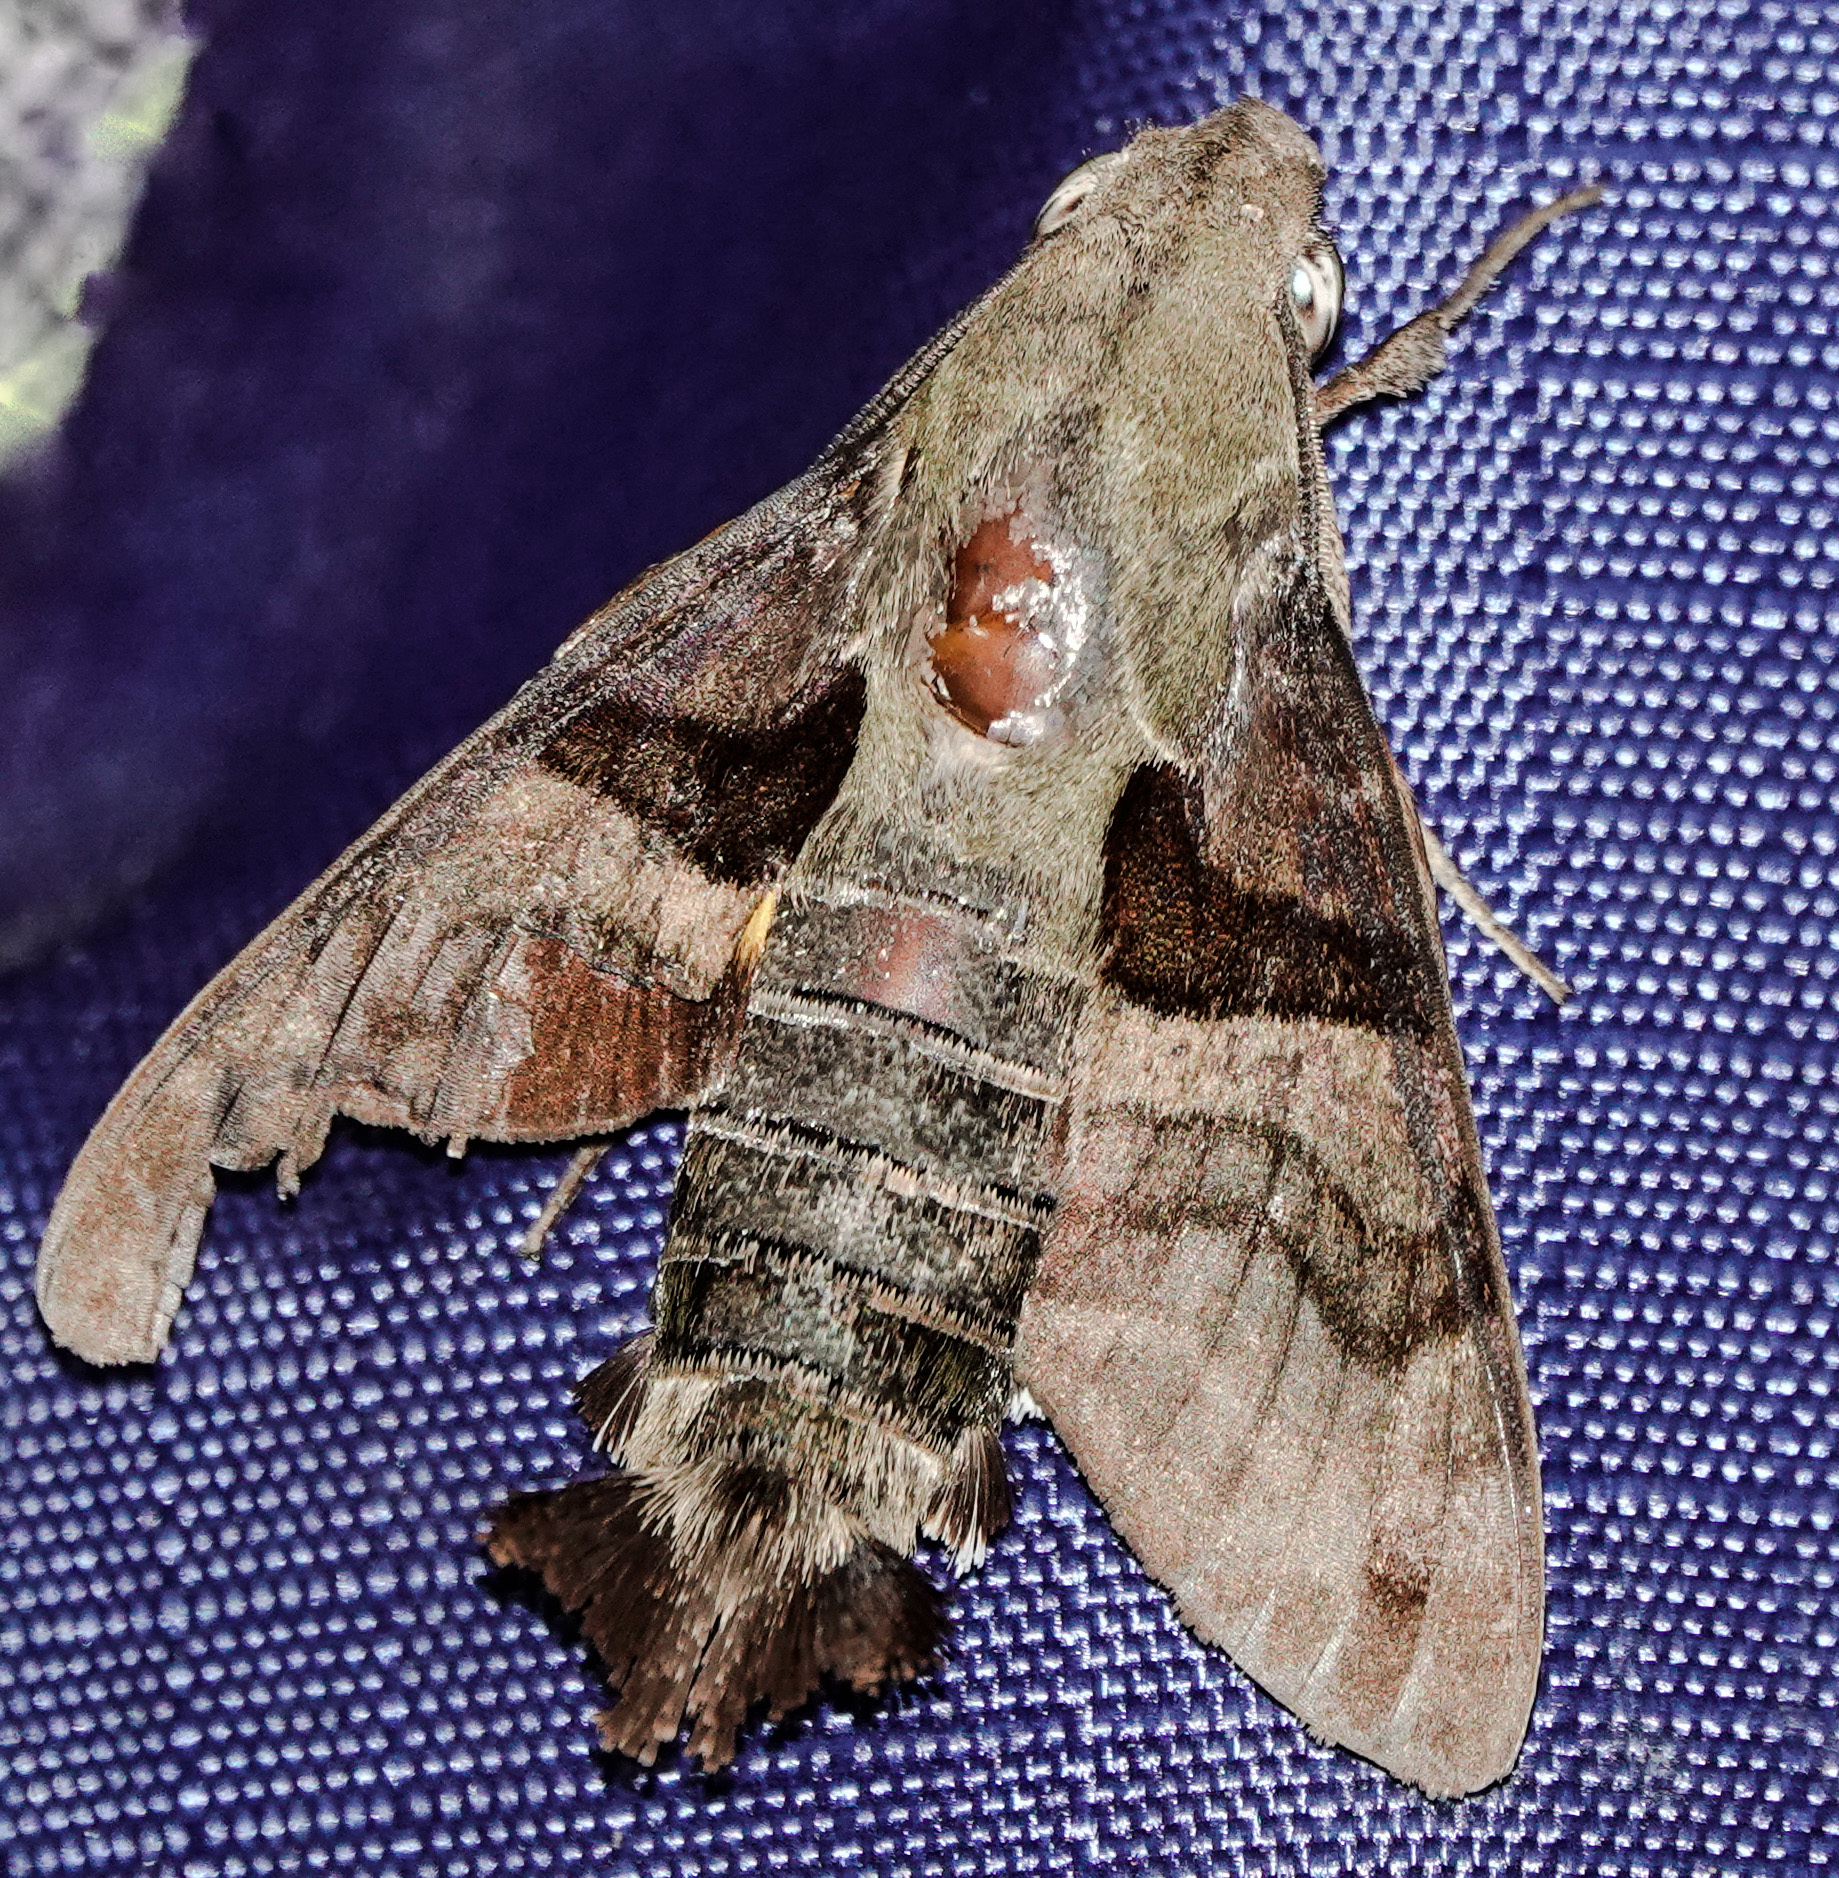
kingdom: Animalia
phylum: Arthropoda
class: Insecta
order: Lepidoptera
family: Sphingidae
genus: Macroglossum
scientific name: Macroglossum sitiene
